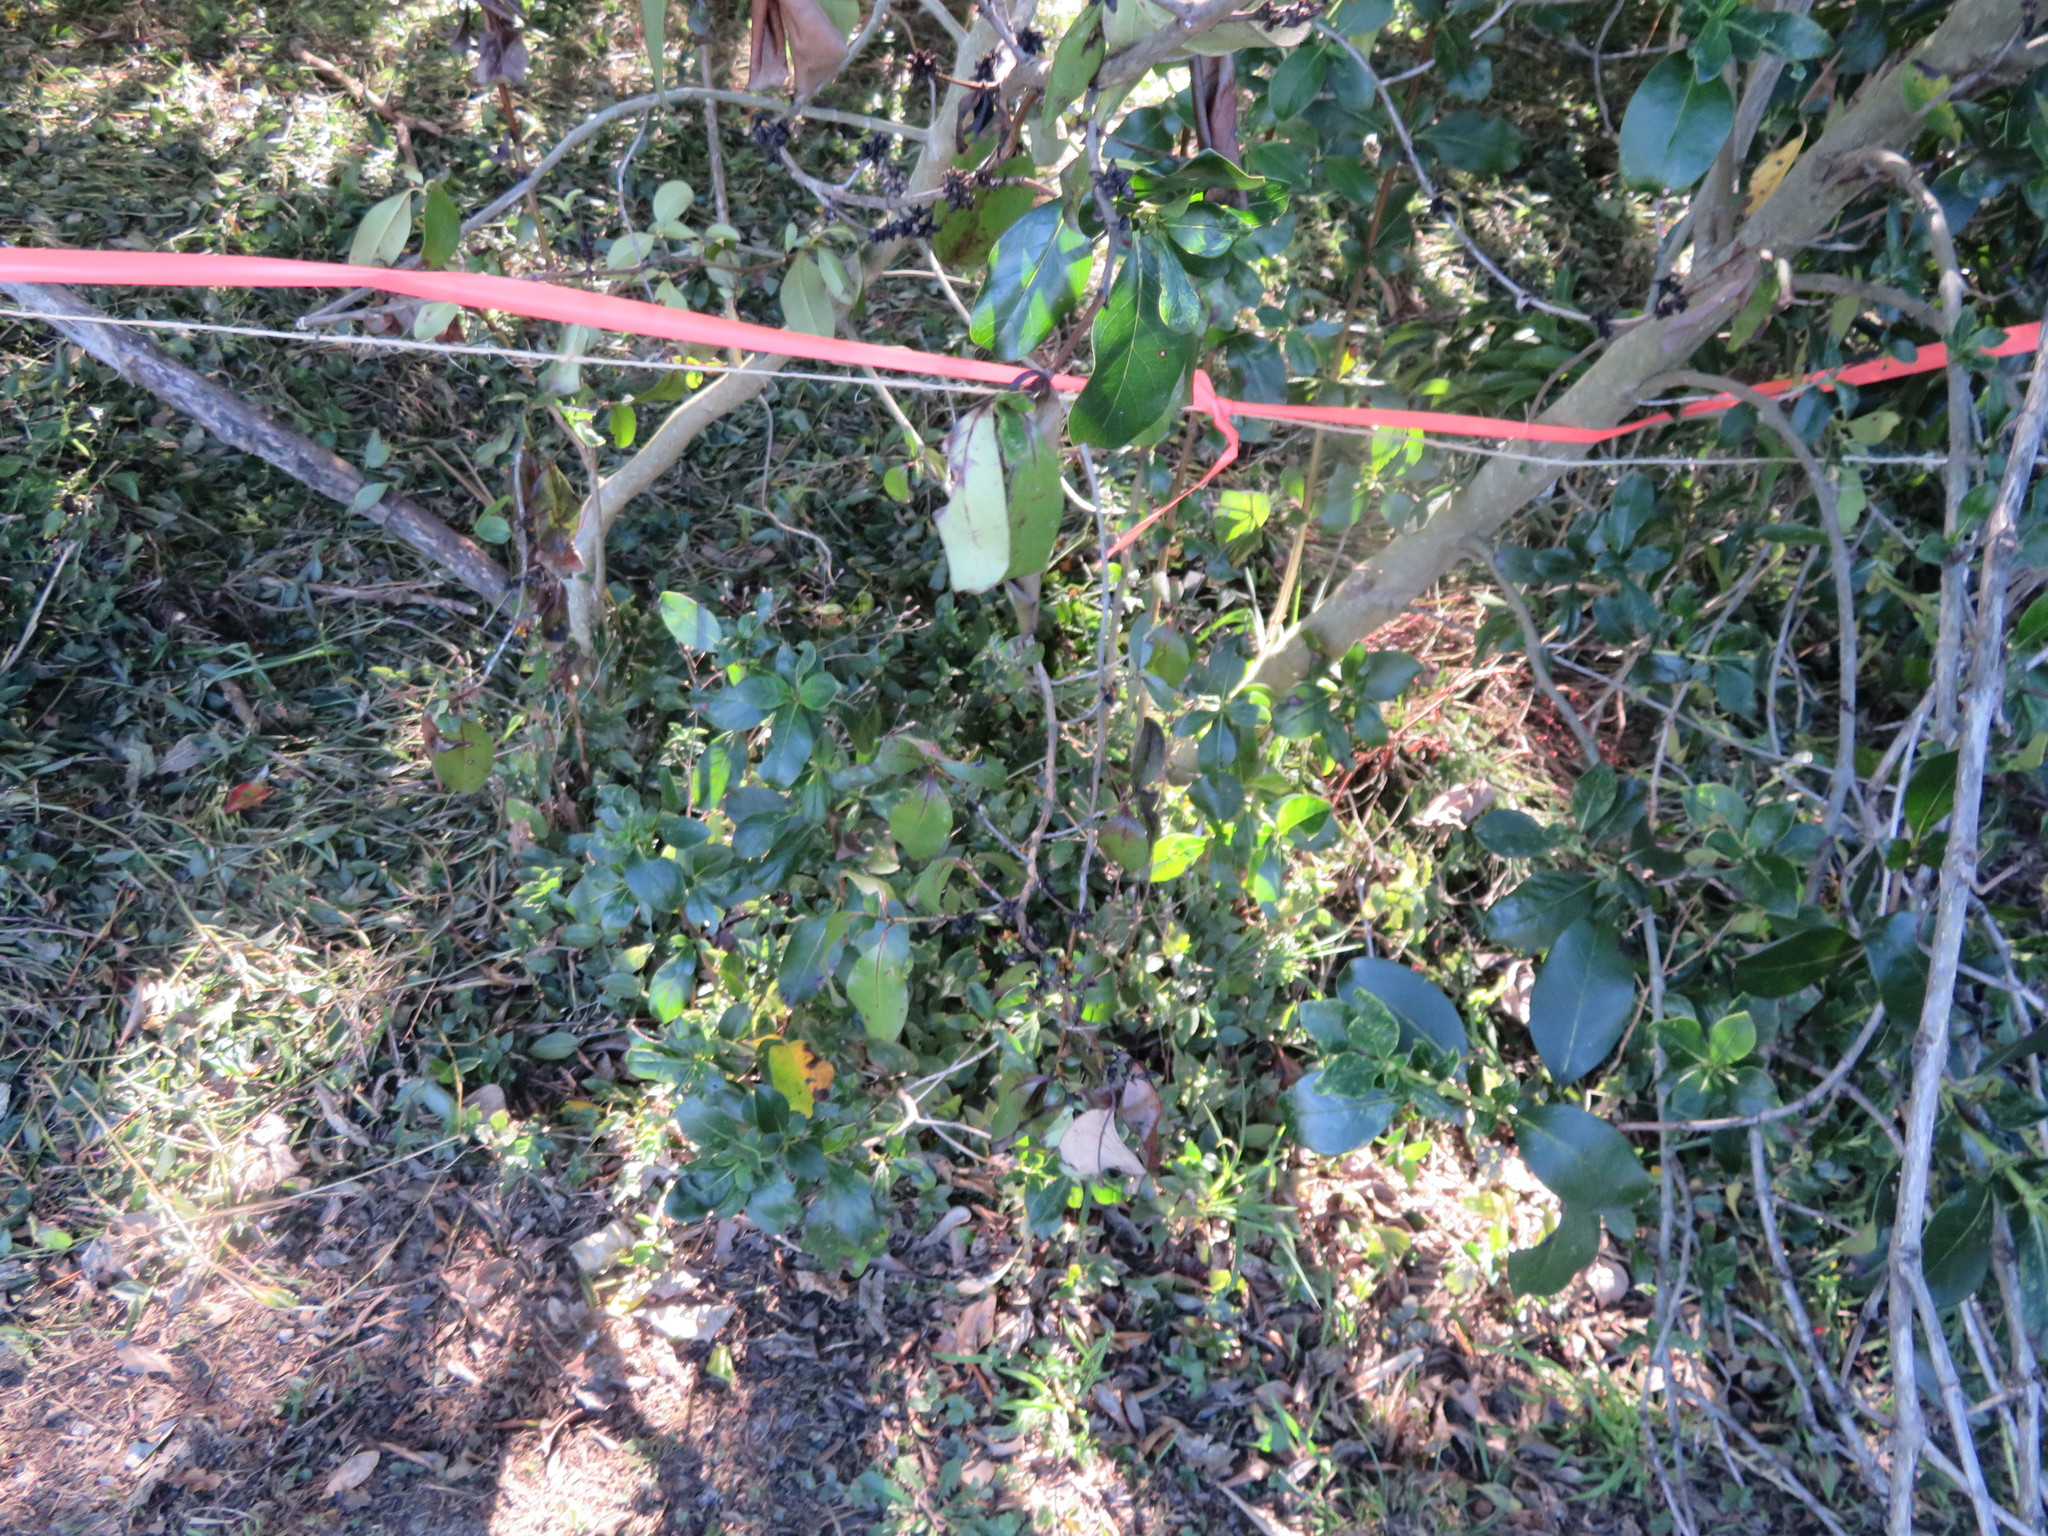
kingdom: Plantae
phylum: Tracheophyta
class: Magnoliopsida
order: Gentianales
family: Rubiaceae
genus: Coprosma
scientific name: Coprosma robusta
